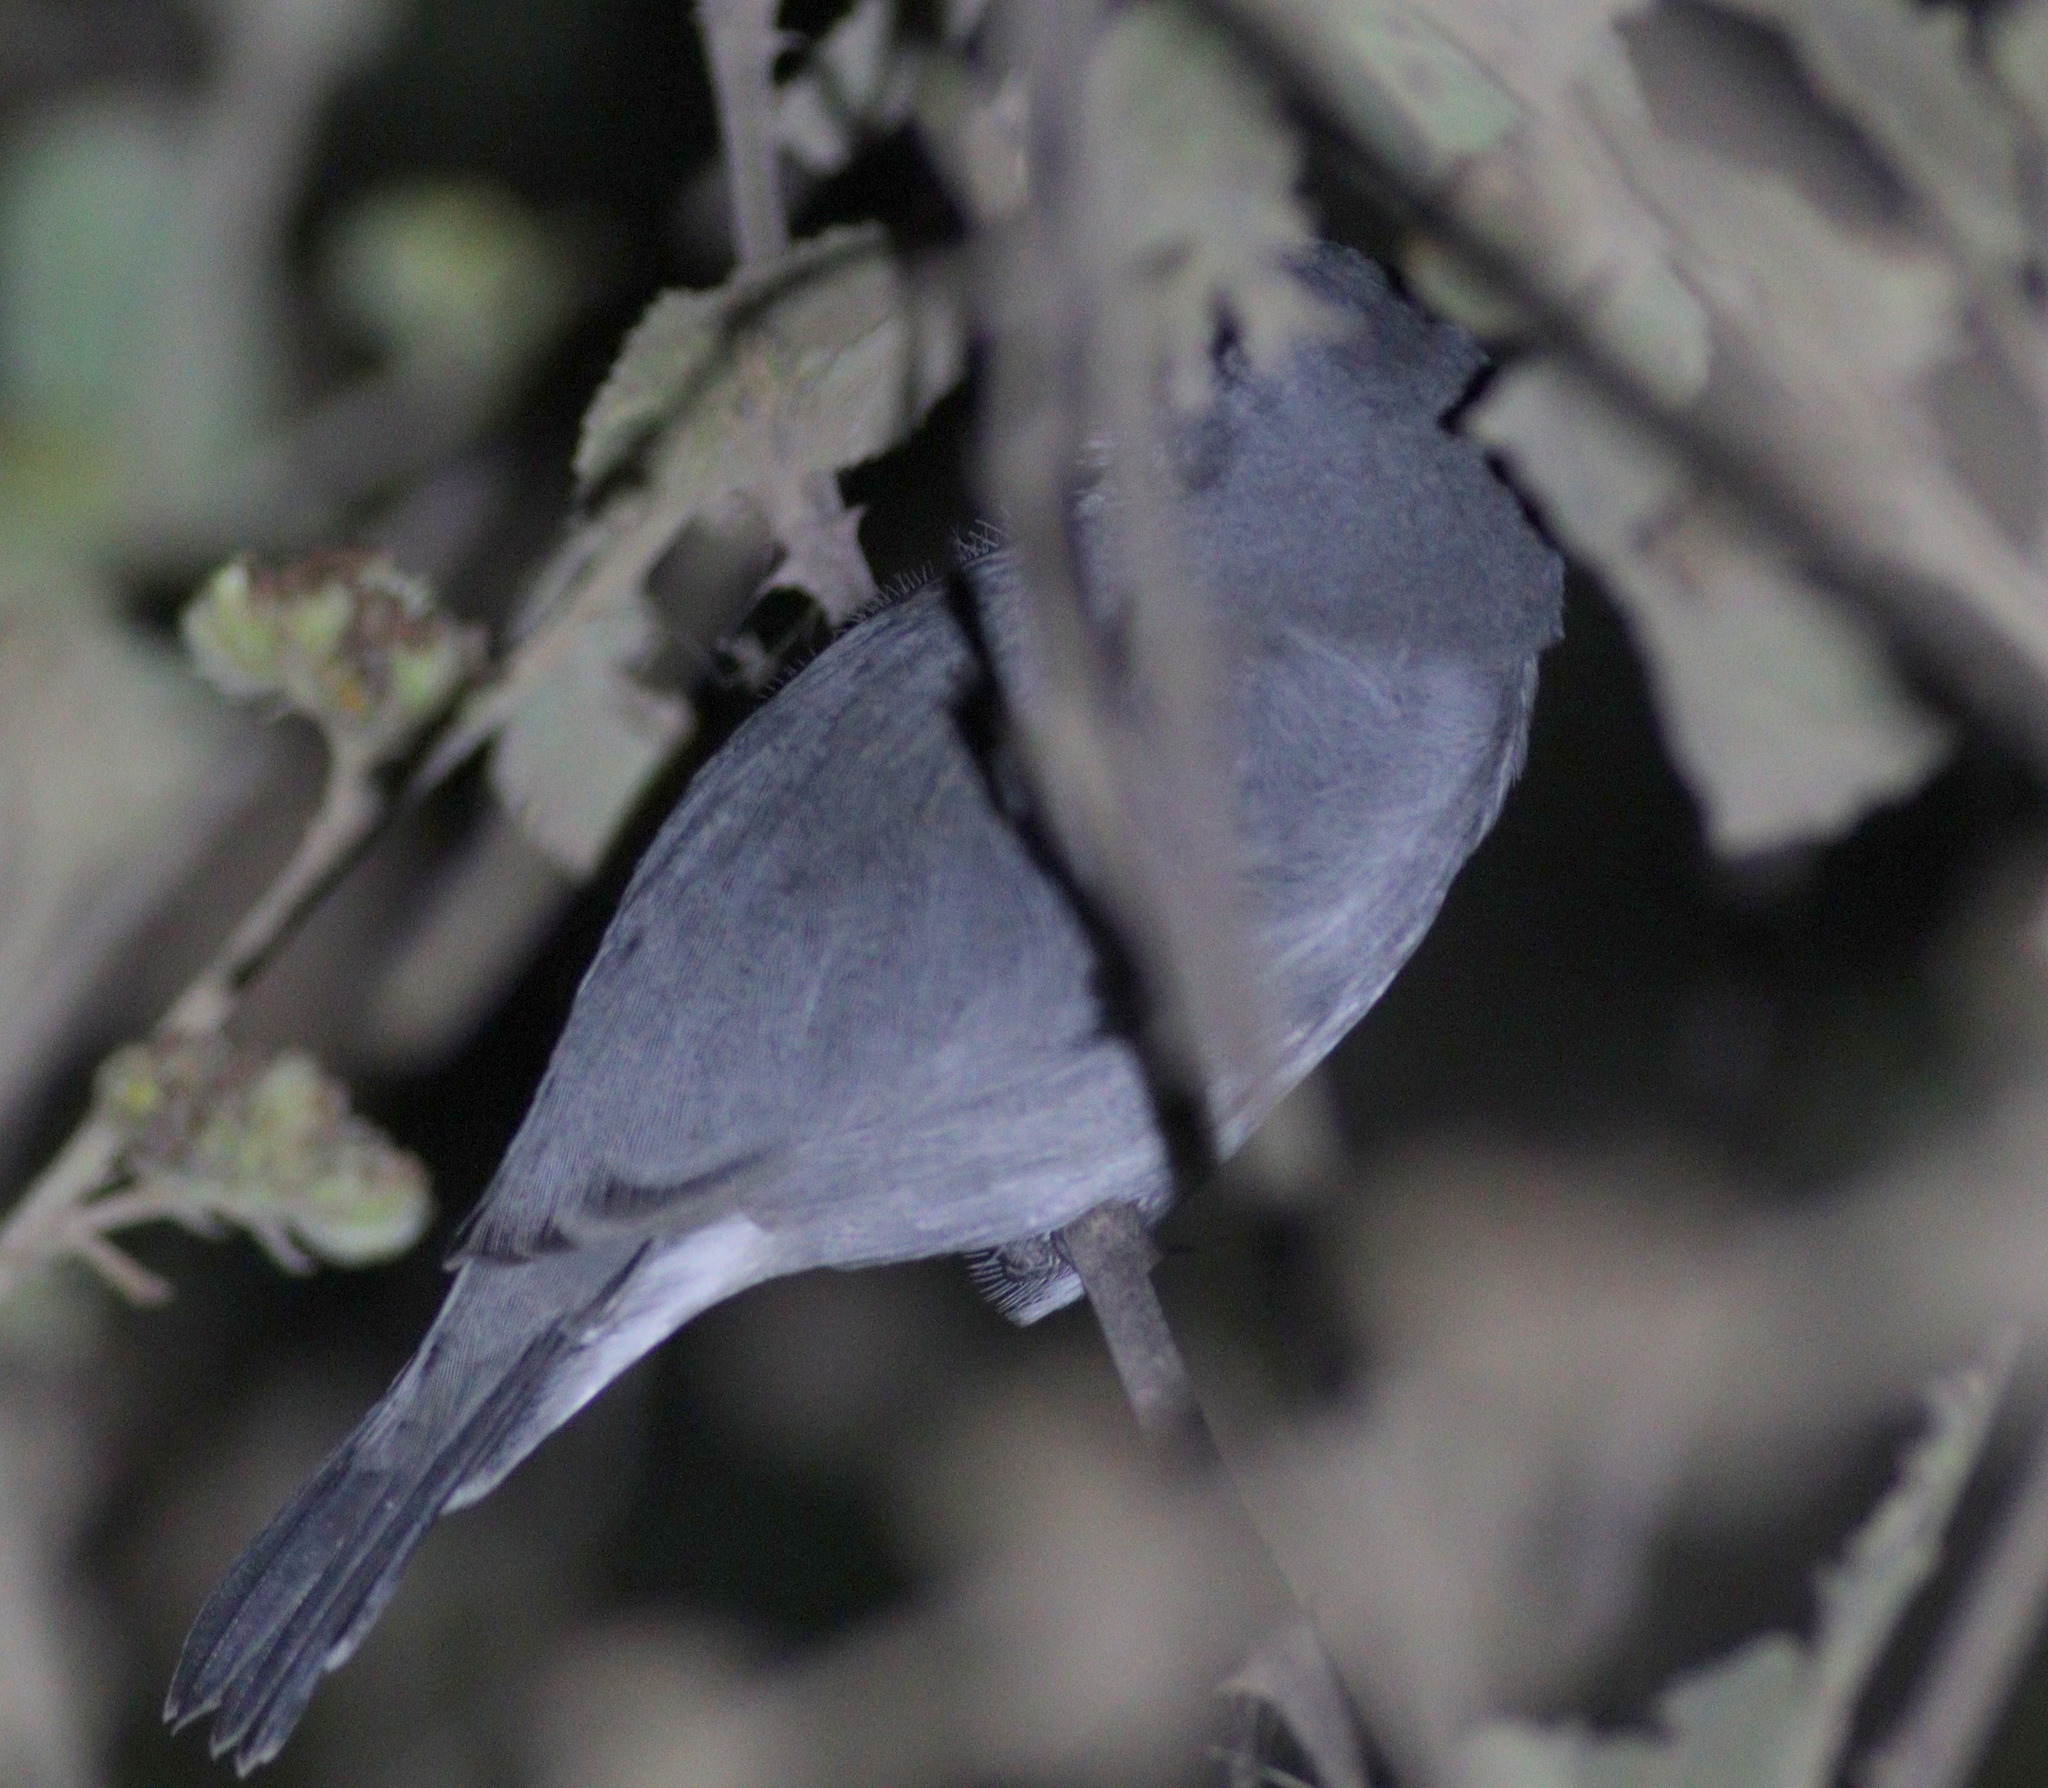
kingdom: Animalia
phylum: Chordata
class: Aves
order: Passeriformes
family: Thraupidae
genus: Sporophila
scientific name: Sporophila plumbea
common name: Plumbeous seedeater
